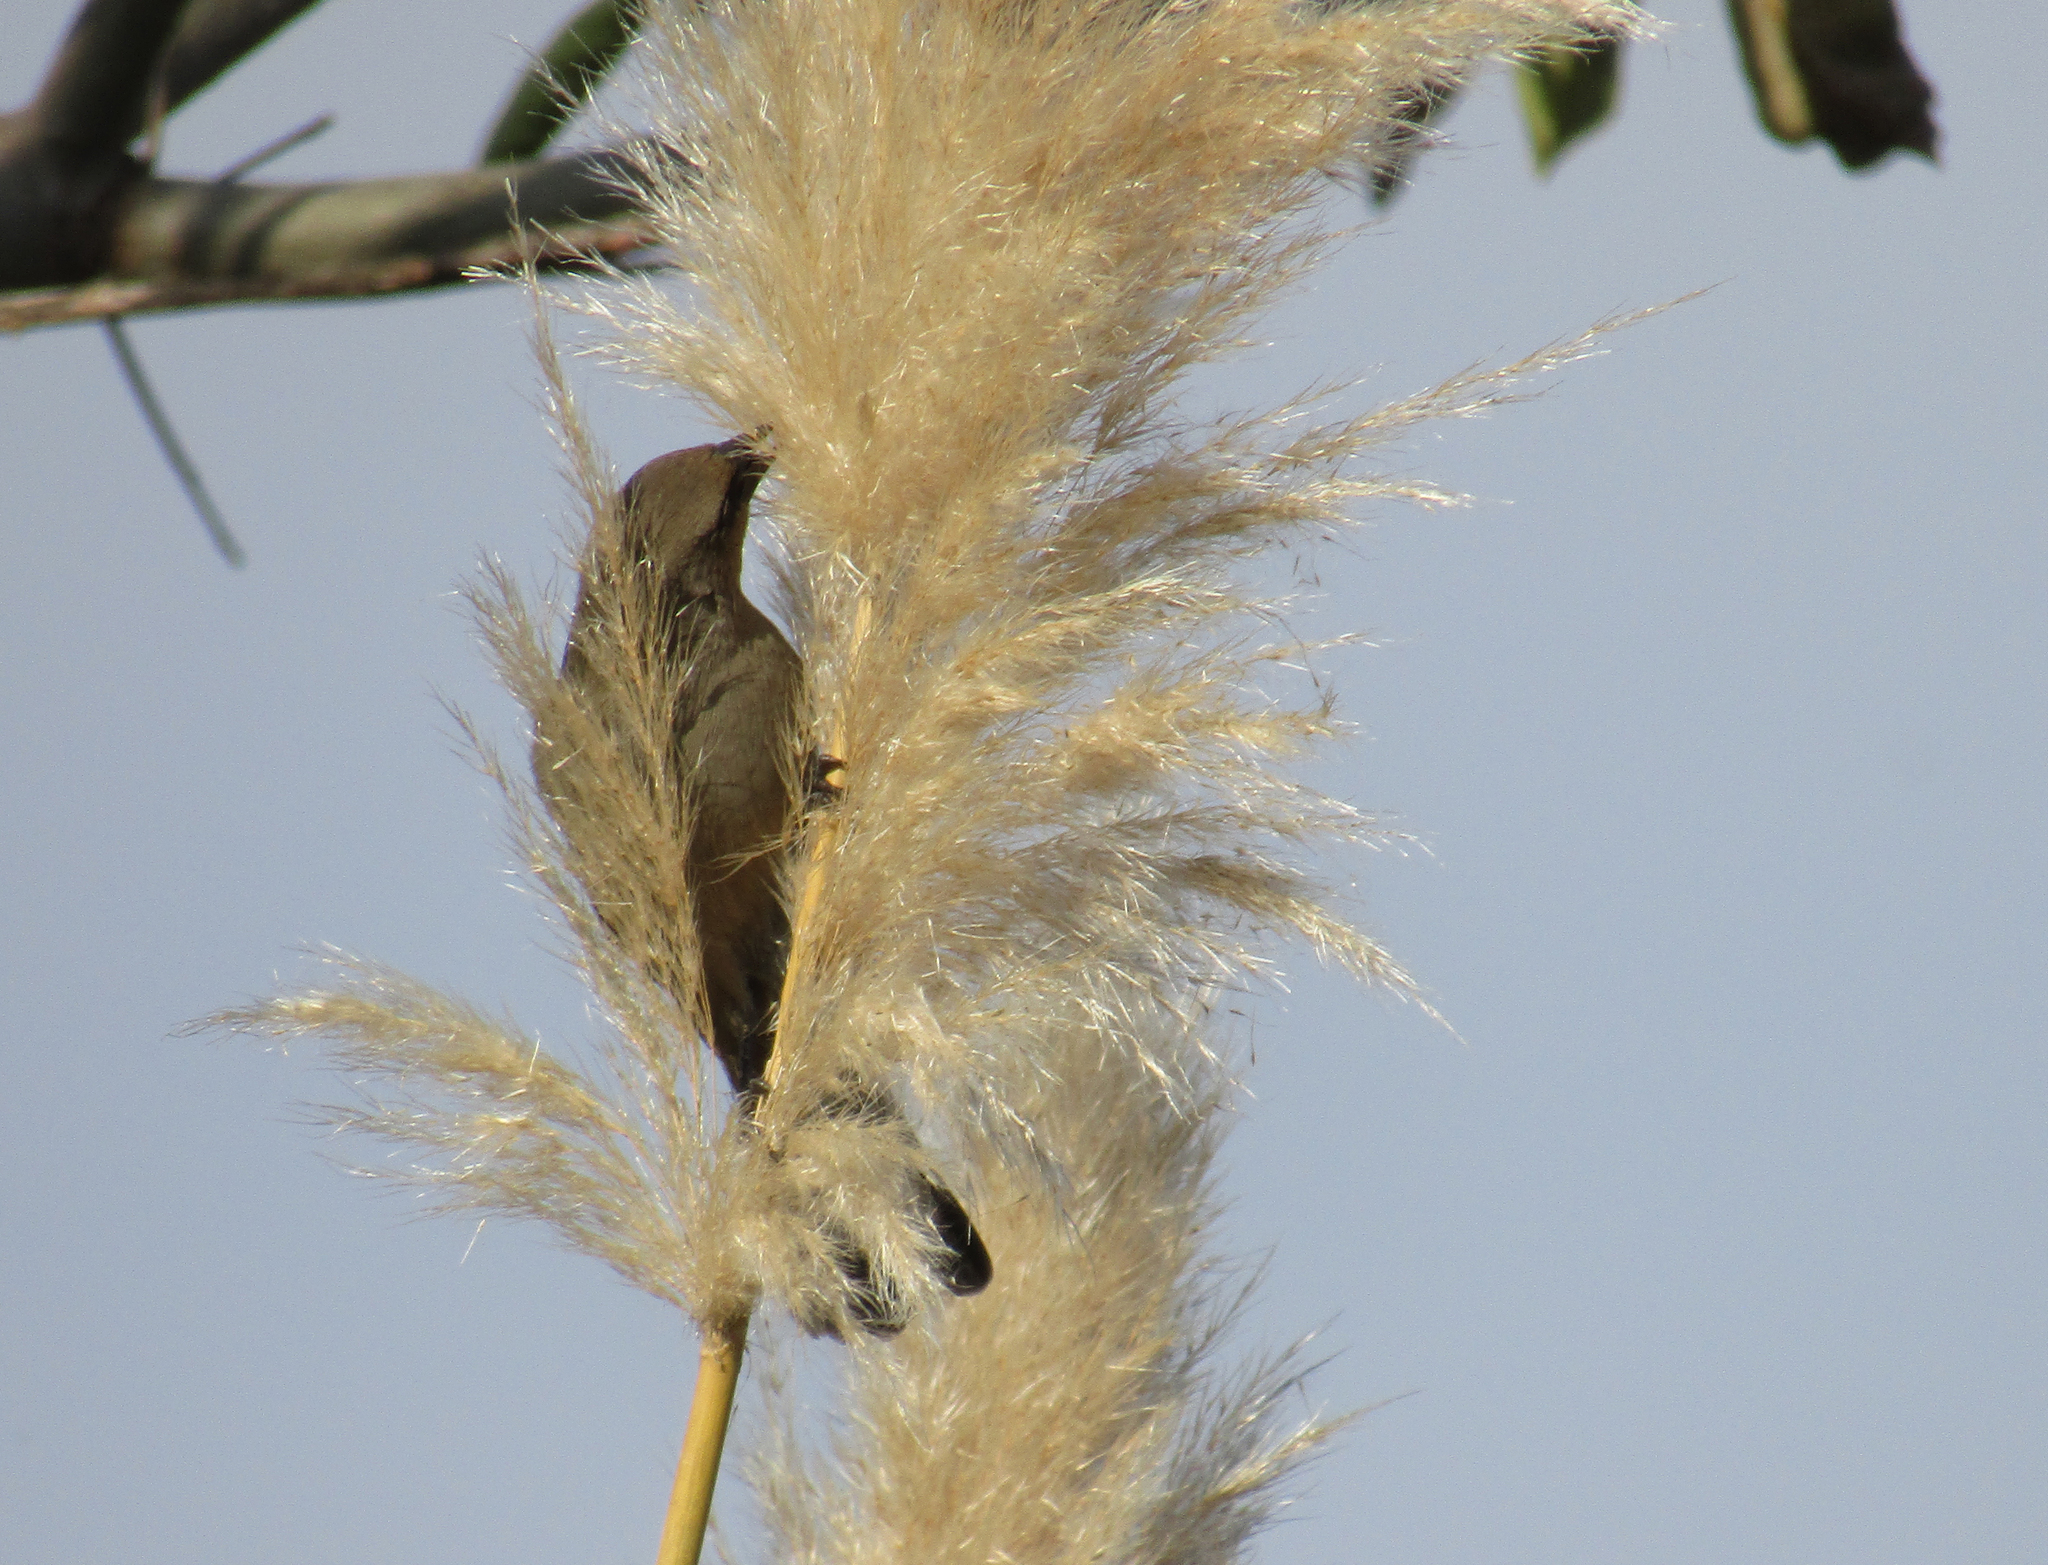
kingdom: Animalia
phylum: Chordata
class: Aves
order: Passeriformes
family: Icteridae
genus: Agelaioides
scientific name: Agelaioides badius
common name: Baywing
